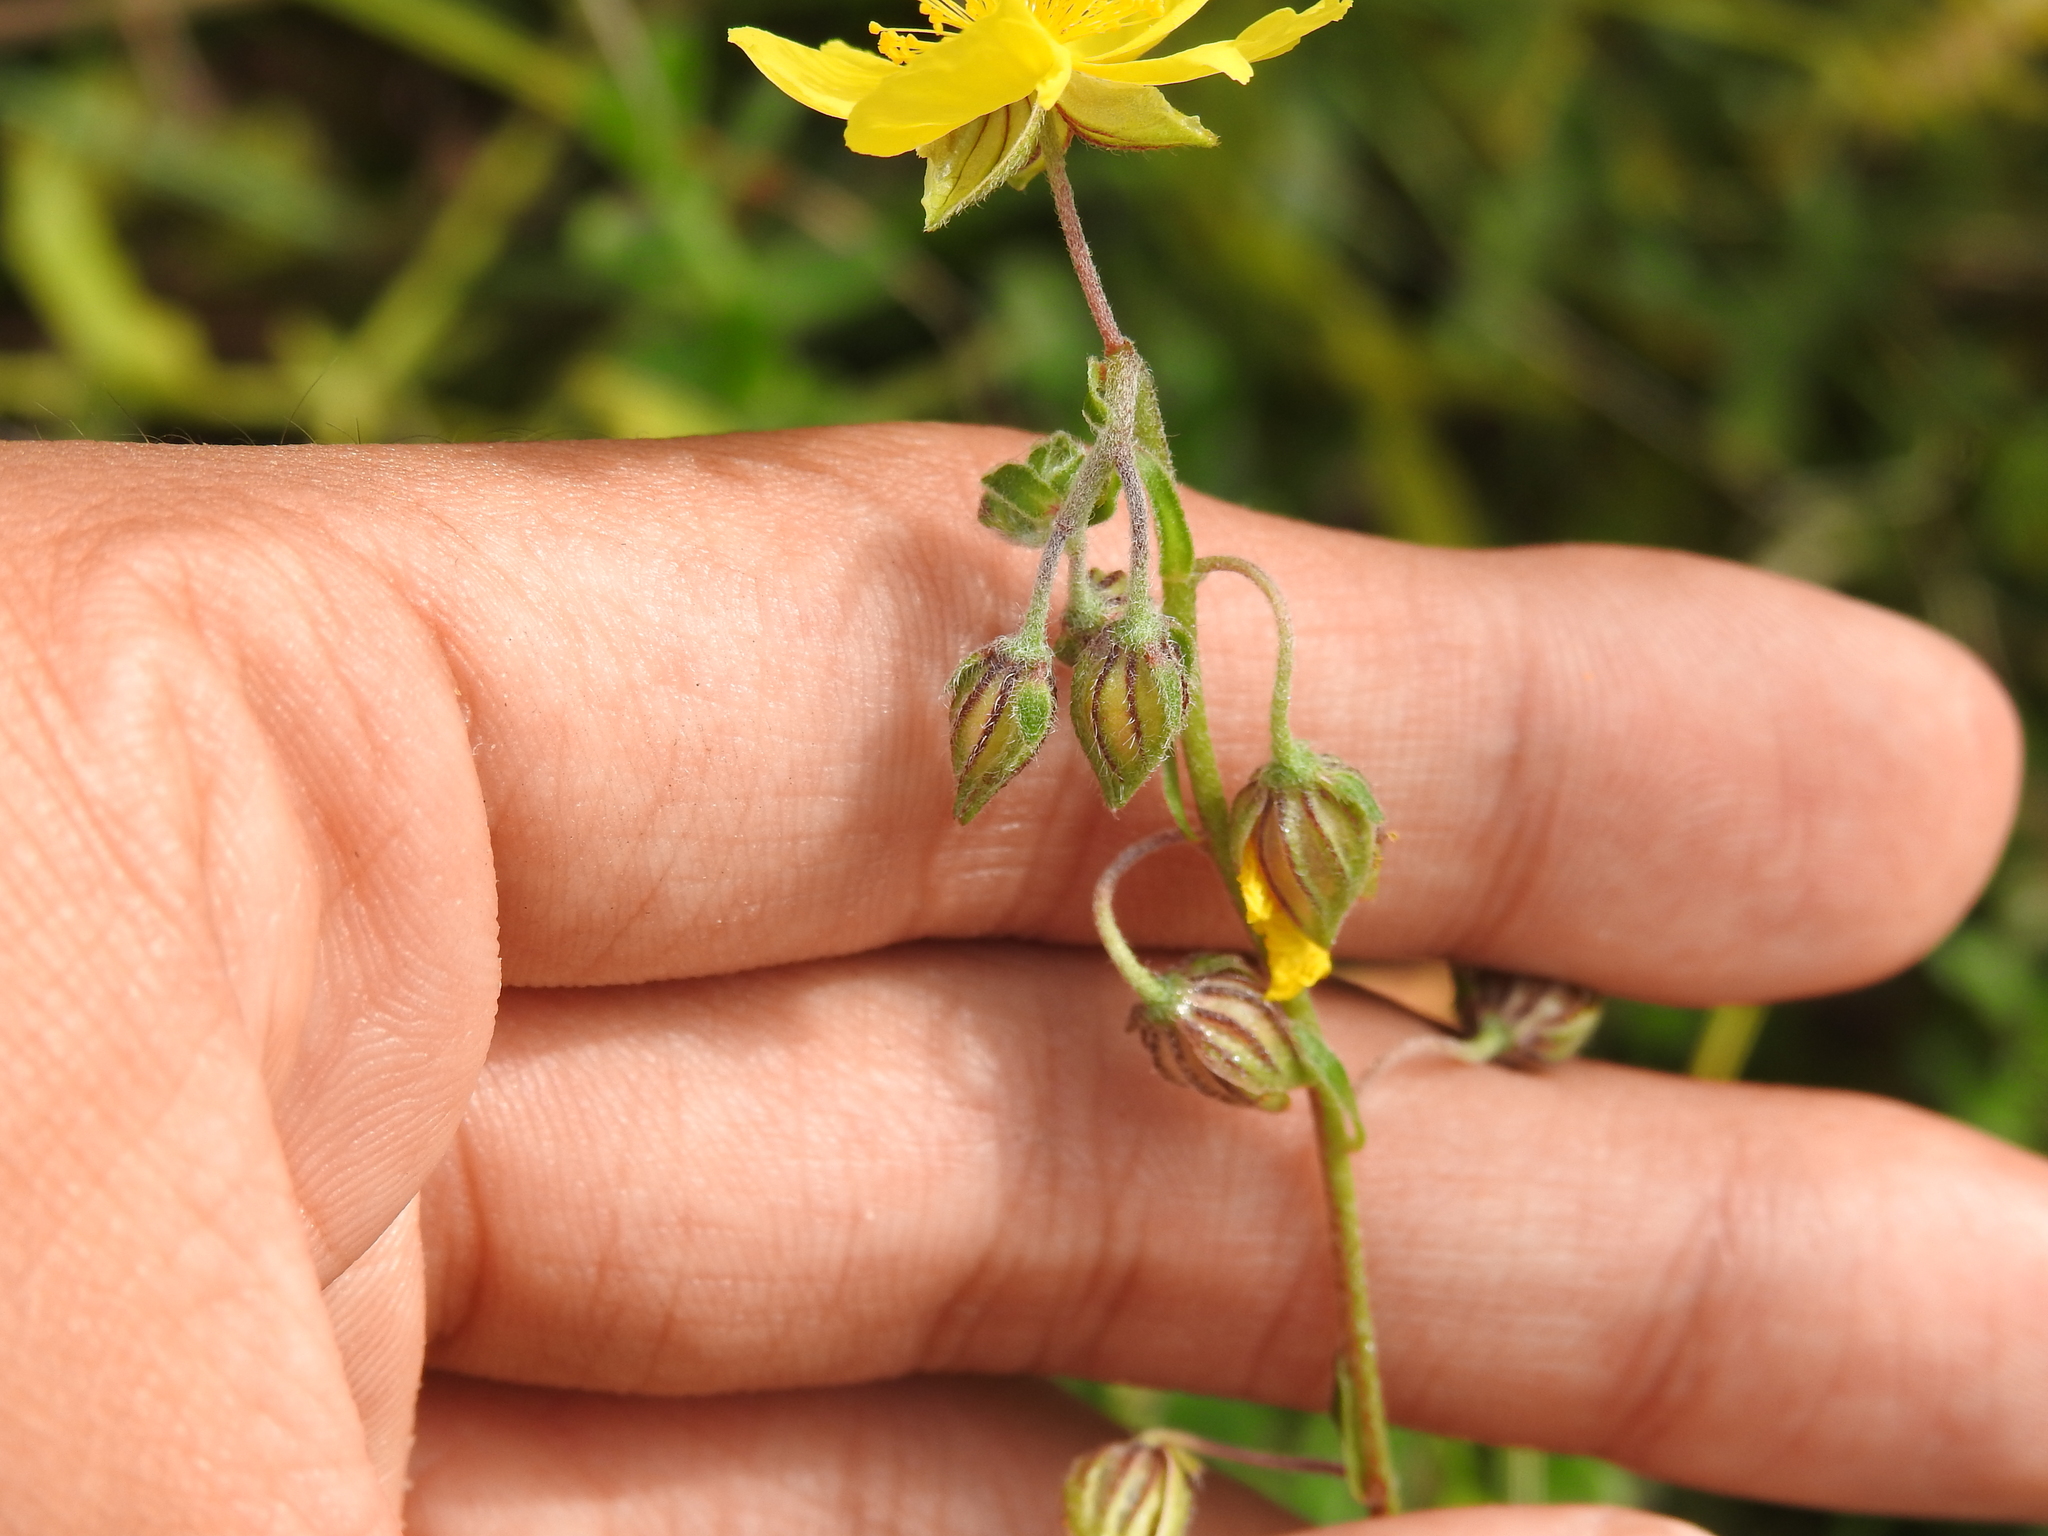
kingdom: Plantae
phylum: Tracheophyta
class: Magnoliopsida
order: Malvales
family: Cistaceae
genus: Helianthemum
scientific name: Helianthemum nummularium
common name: Common rock-rose
